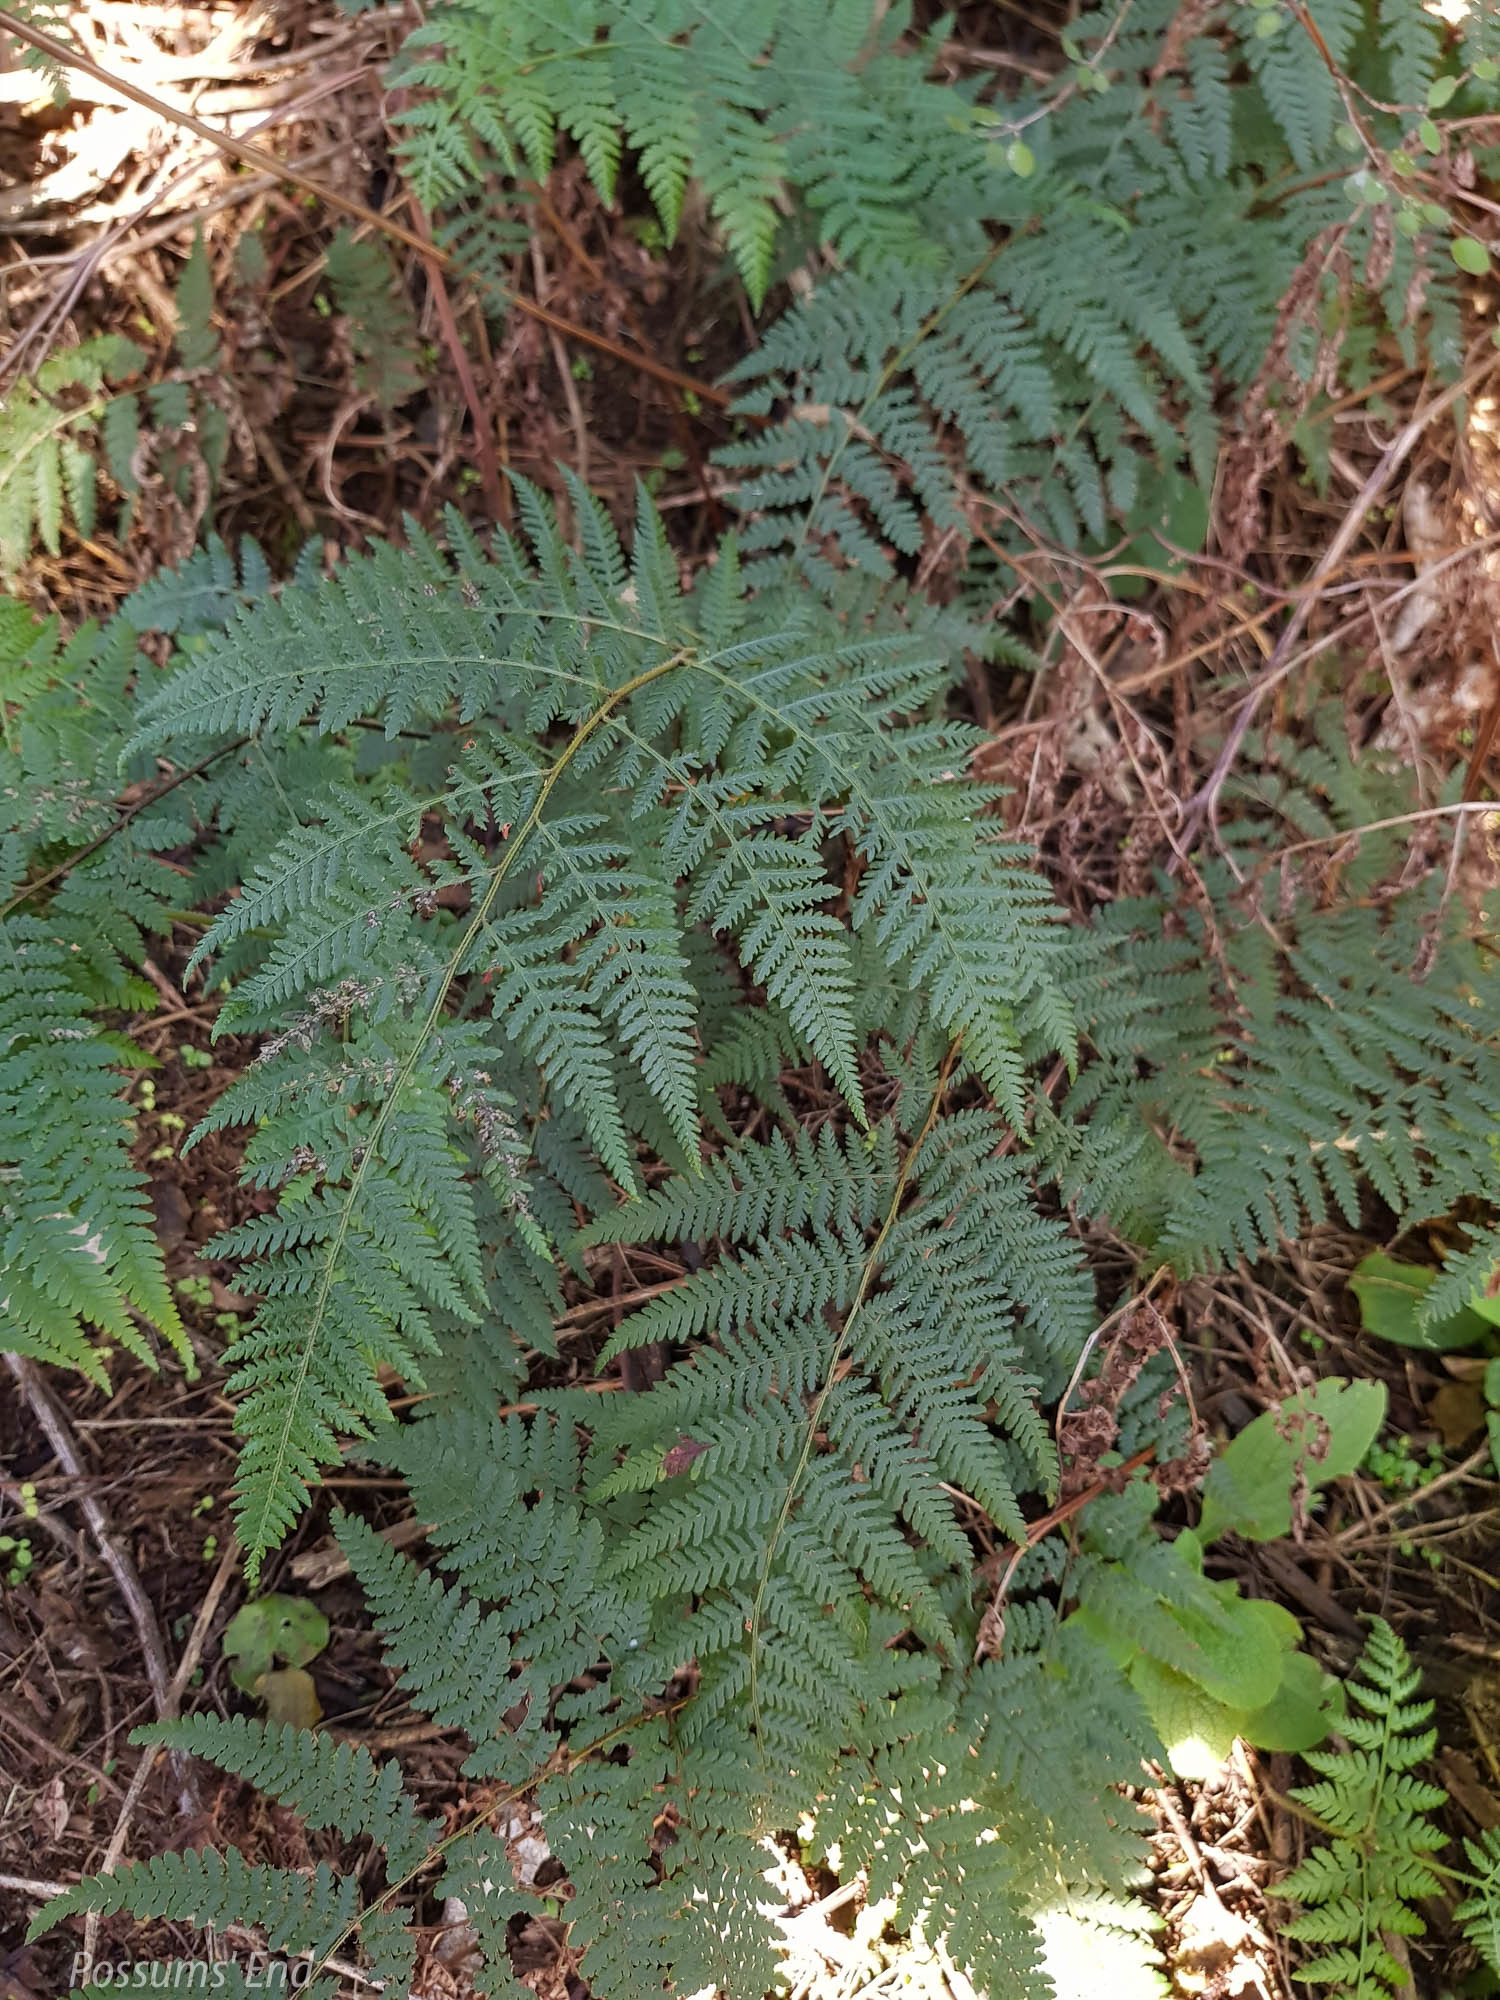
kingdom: Plantae
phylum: Tracheophyta
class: Polypodiopsida
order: Polypodiales
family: Dennstaedtiaceae
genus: Hypolepis
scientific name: Hypolepis ambigua
